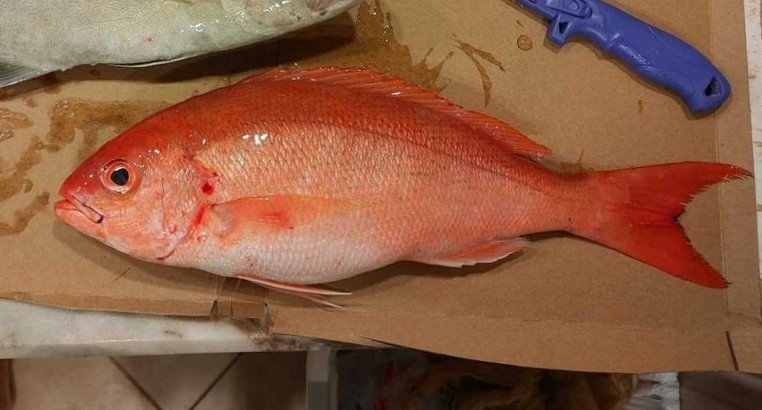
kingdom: Animalia
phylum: Chordata
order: Perciformes
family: Lutjanidae
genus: Rhomboplites
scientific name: Rhomboplites aurorubens
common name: Vermillion snapper
